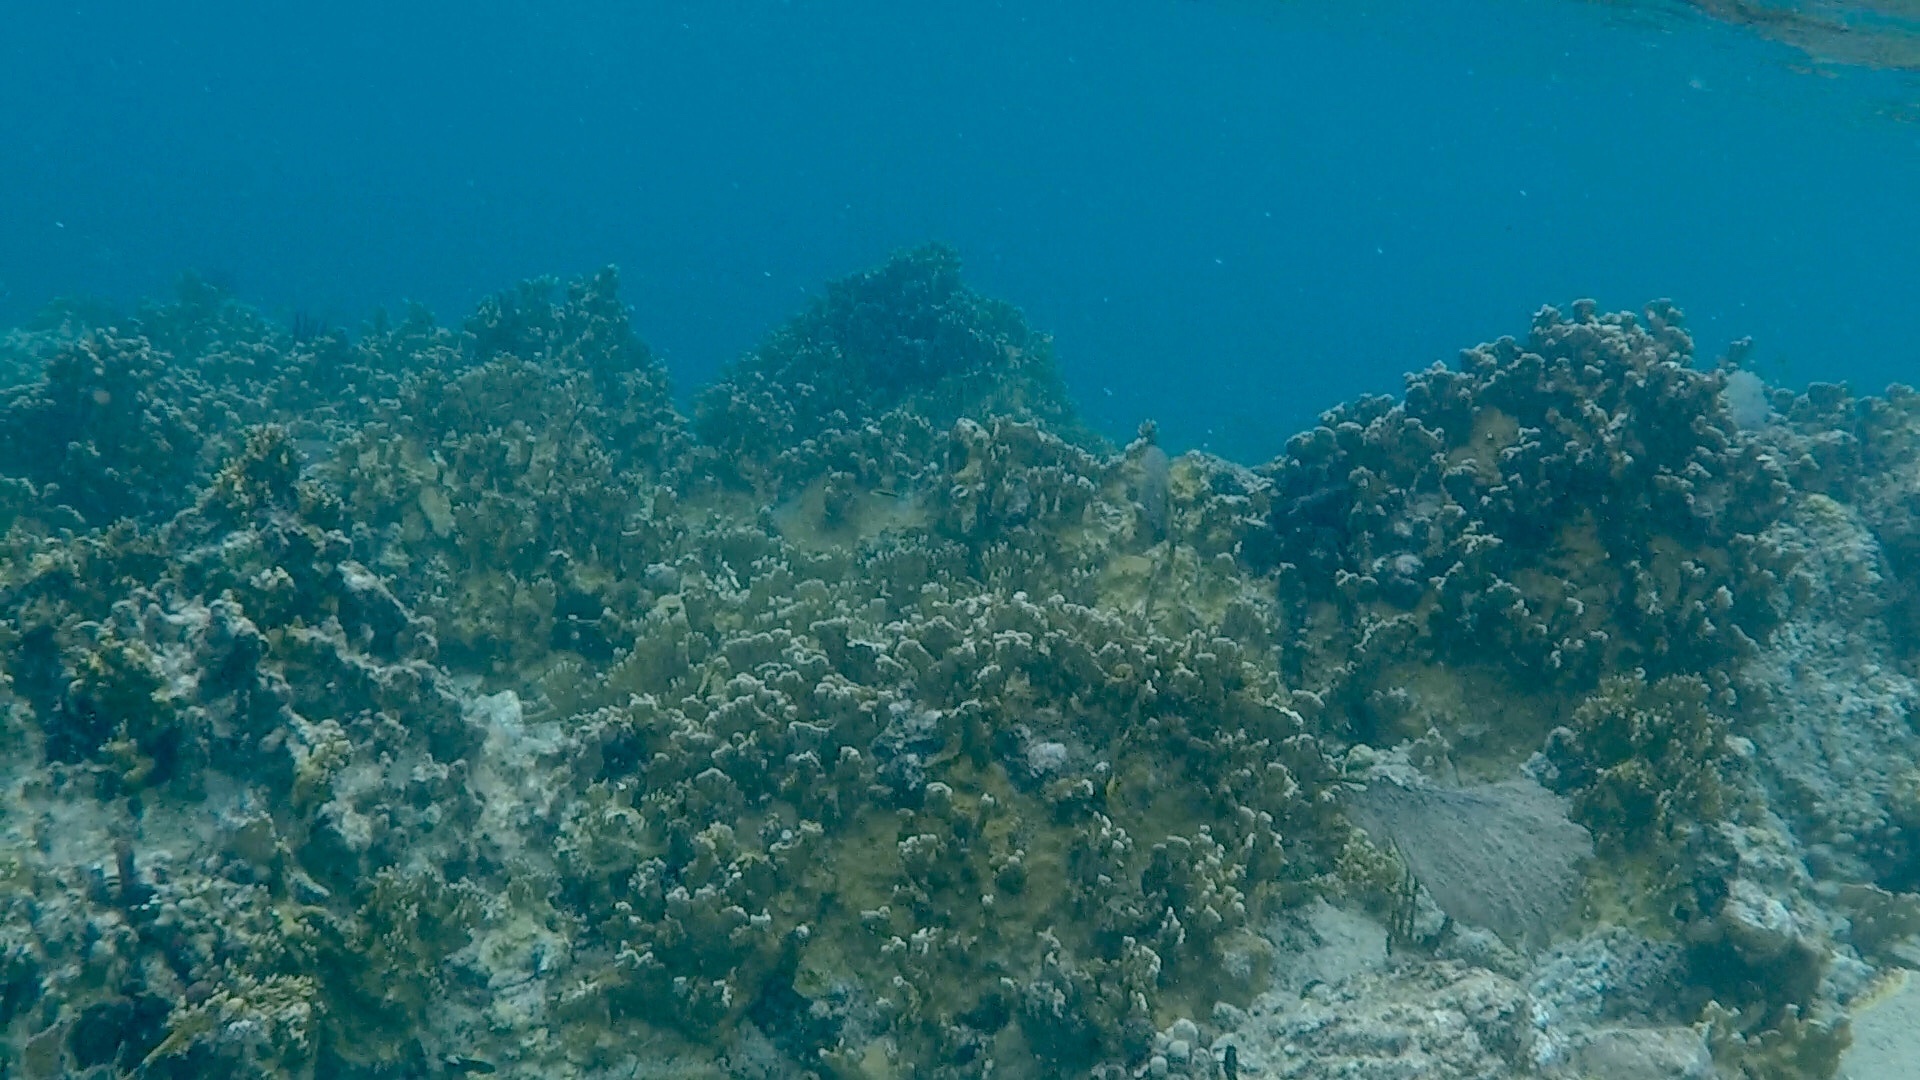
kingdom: Animalia
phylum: Cnidaria
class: Hydrozoa
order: Anthoathecata
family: Milleporidae
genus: Millepora
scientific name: Millepora complanata
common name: Bladed fire coral
